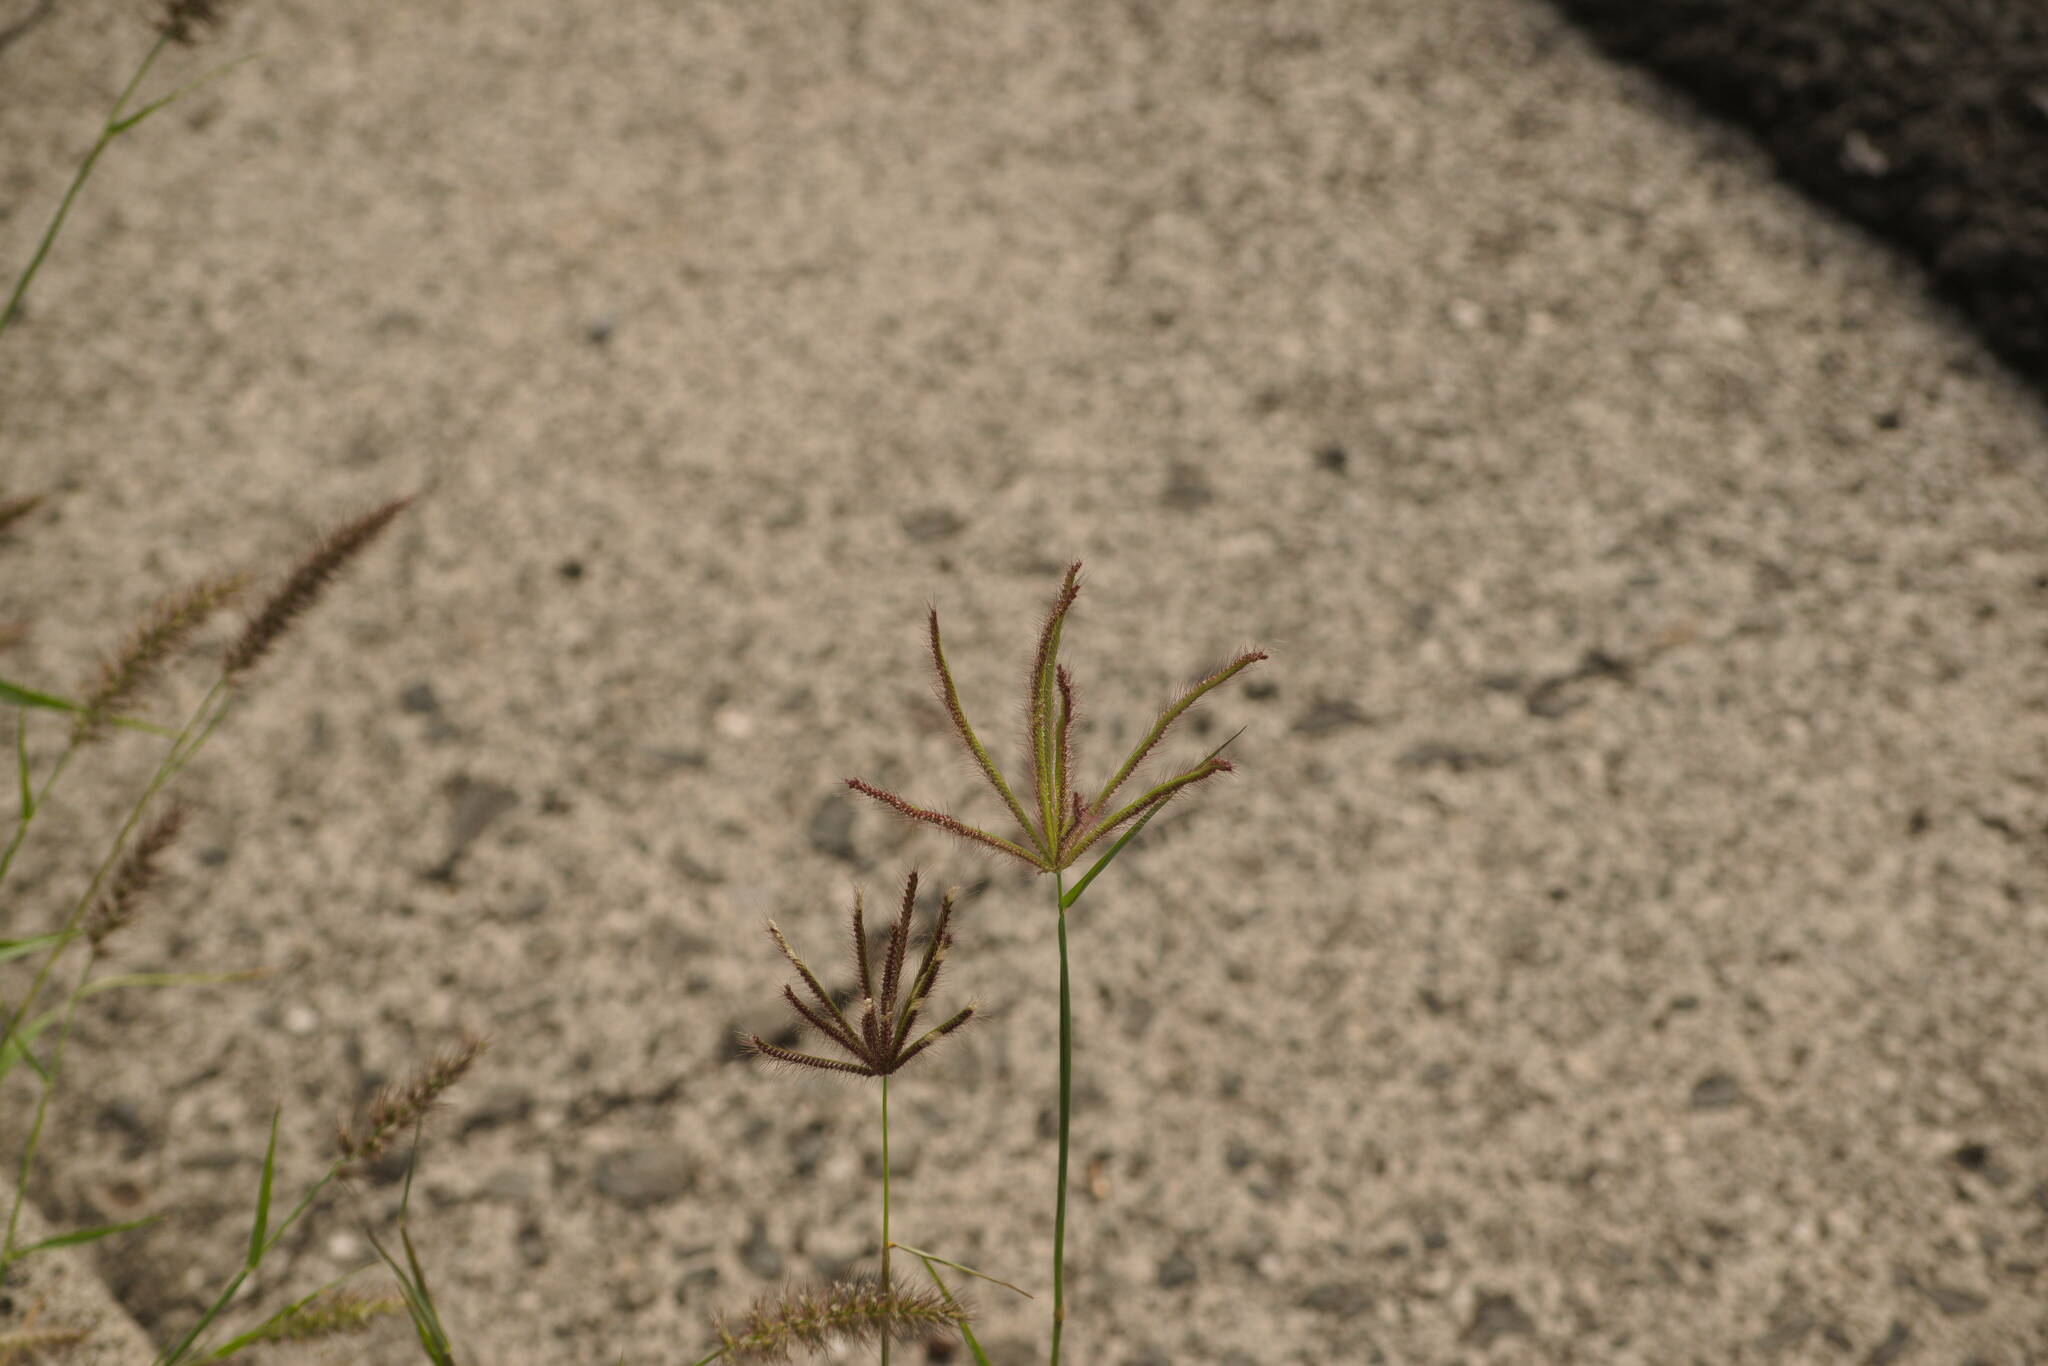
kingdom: Plantae
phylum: Tracheophyta
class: Liliopsida
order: Poales
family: Poaceae
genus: Chloris
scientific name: Chloris barbata
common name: Swollen fingergrass
